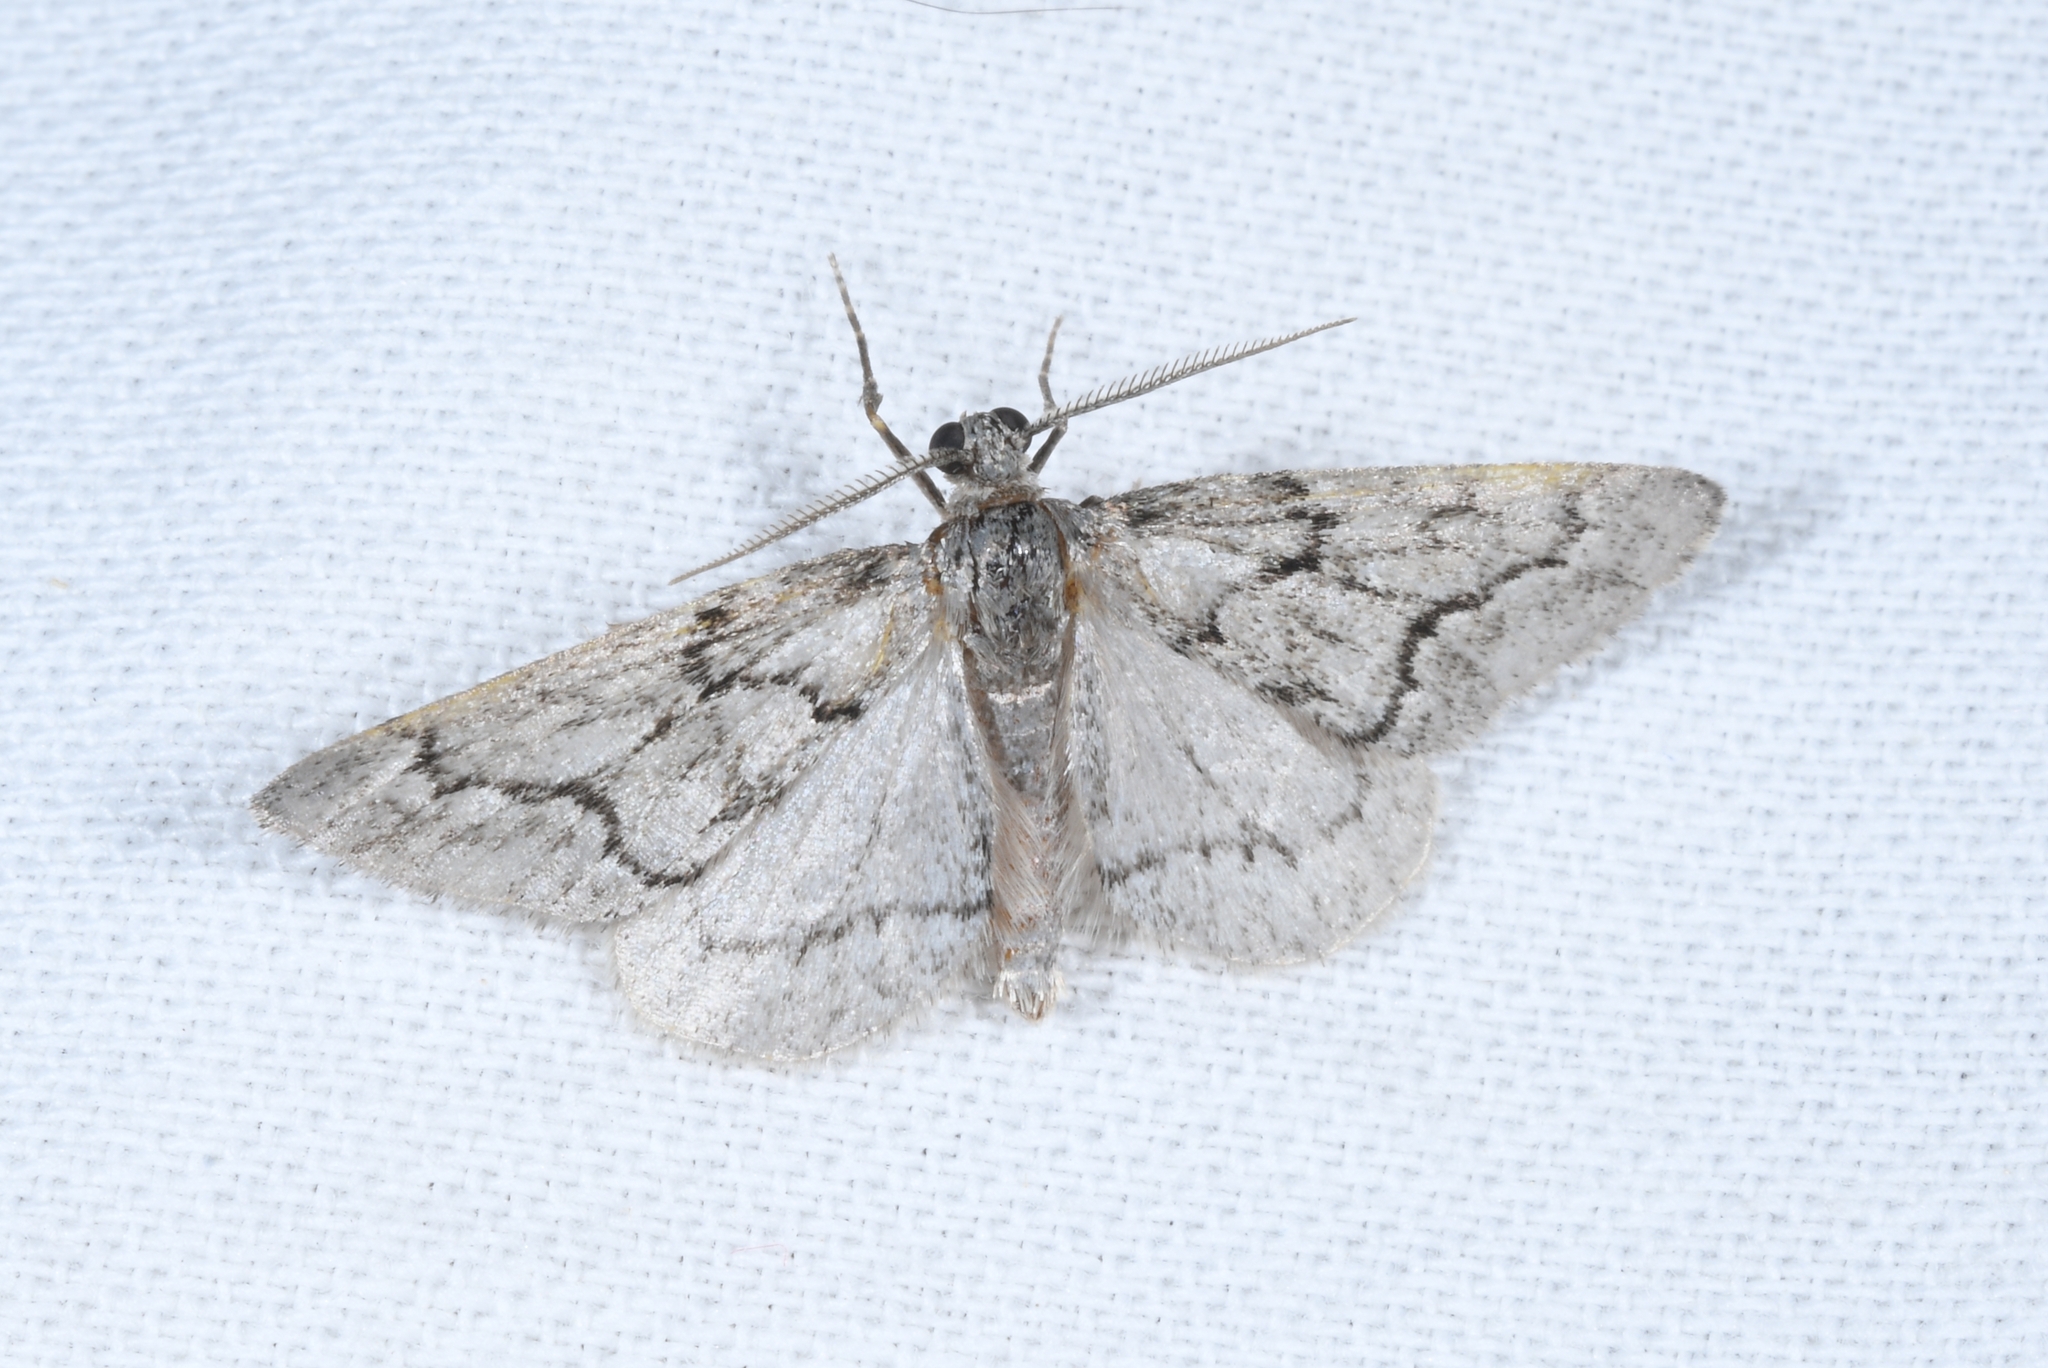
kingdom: Animalia
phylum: Arthropoda
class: Insecta
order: Lepidoptera
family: Geometridae
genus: Tephronia
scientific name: Tephronia sepiaria
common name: Dusky carpet
